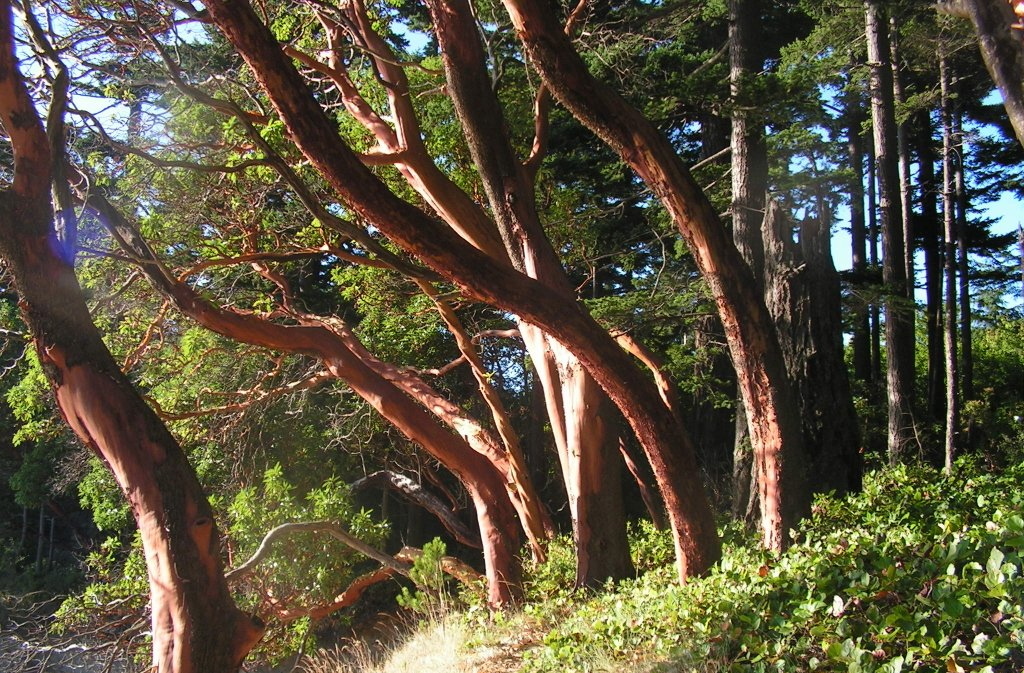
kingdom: Plantae
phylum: Tracheophyta
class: Magnoliopsida
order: Ericales
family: Ericaceae
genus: Arbutus
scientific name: Arbutus menziesii
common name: Pacific madrone
